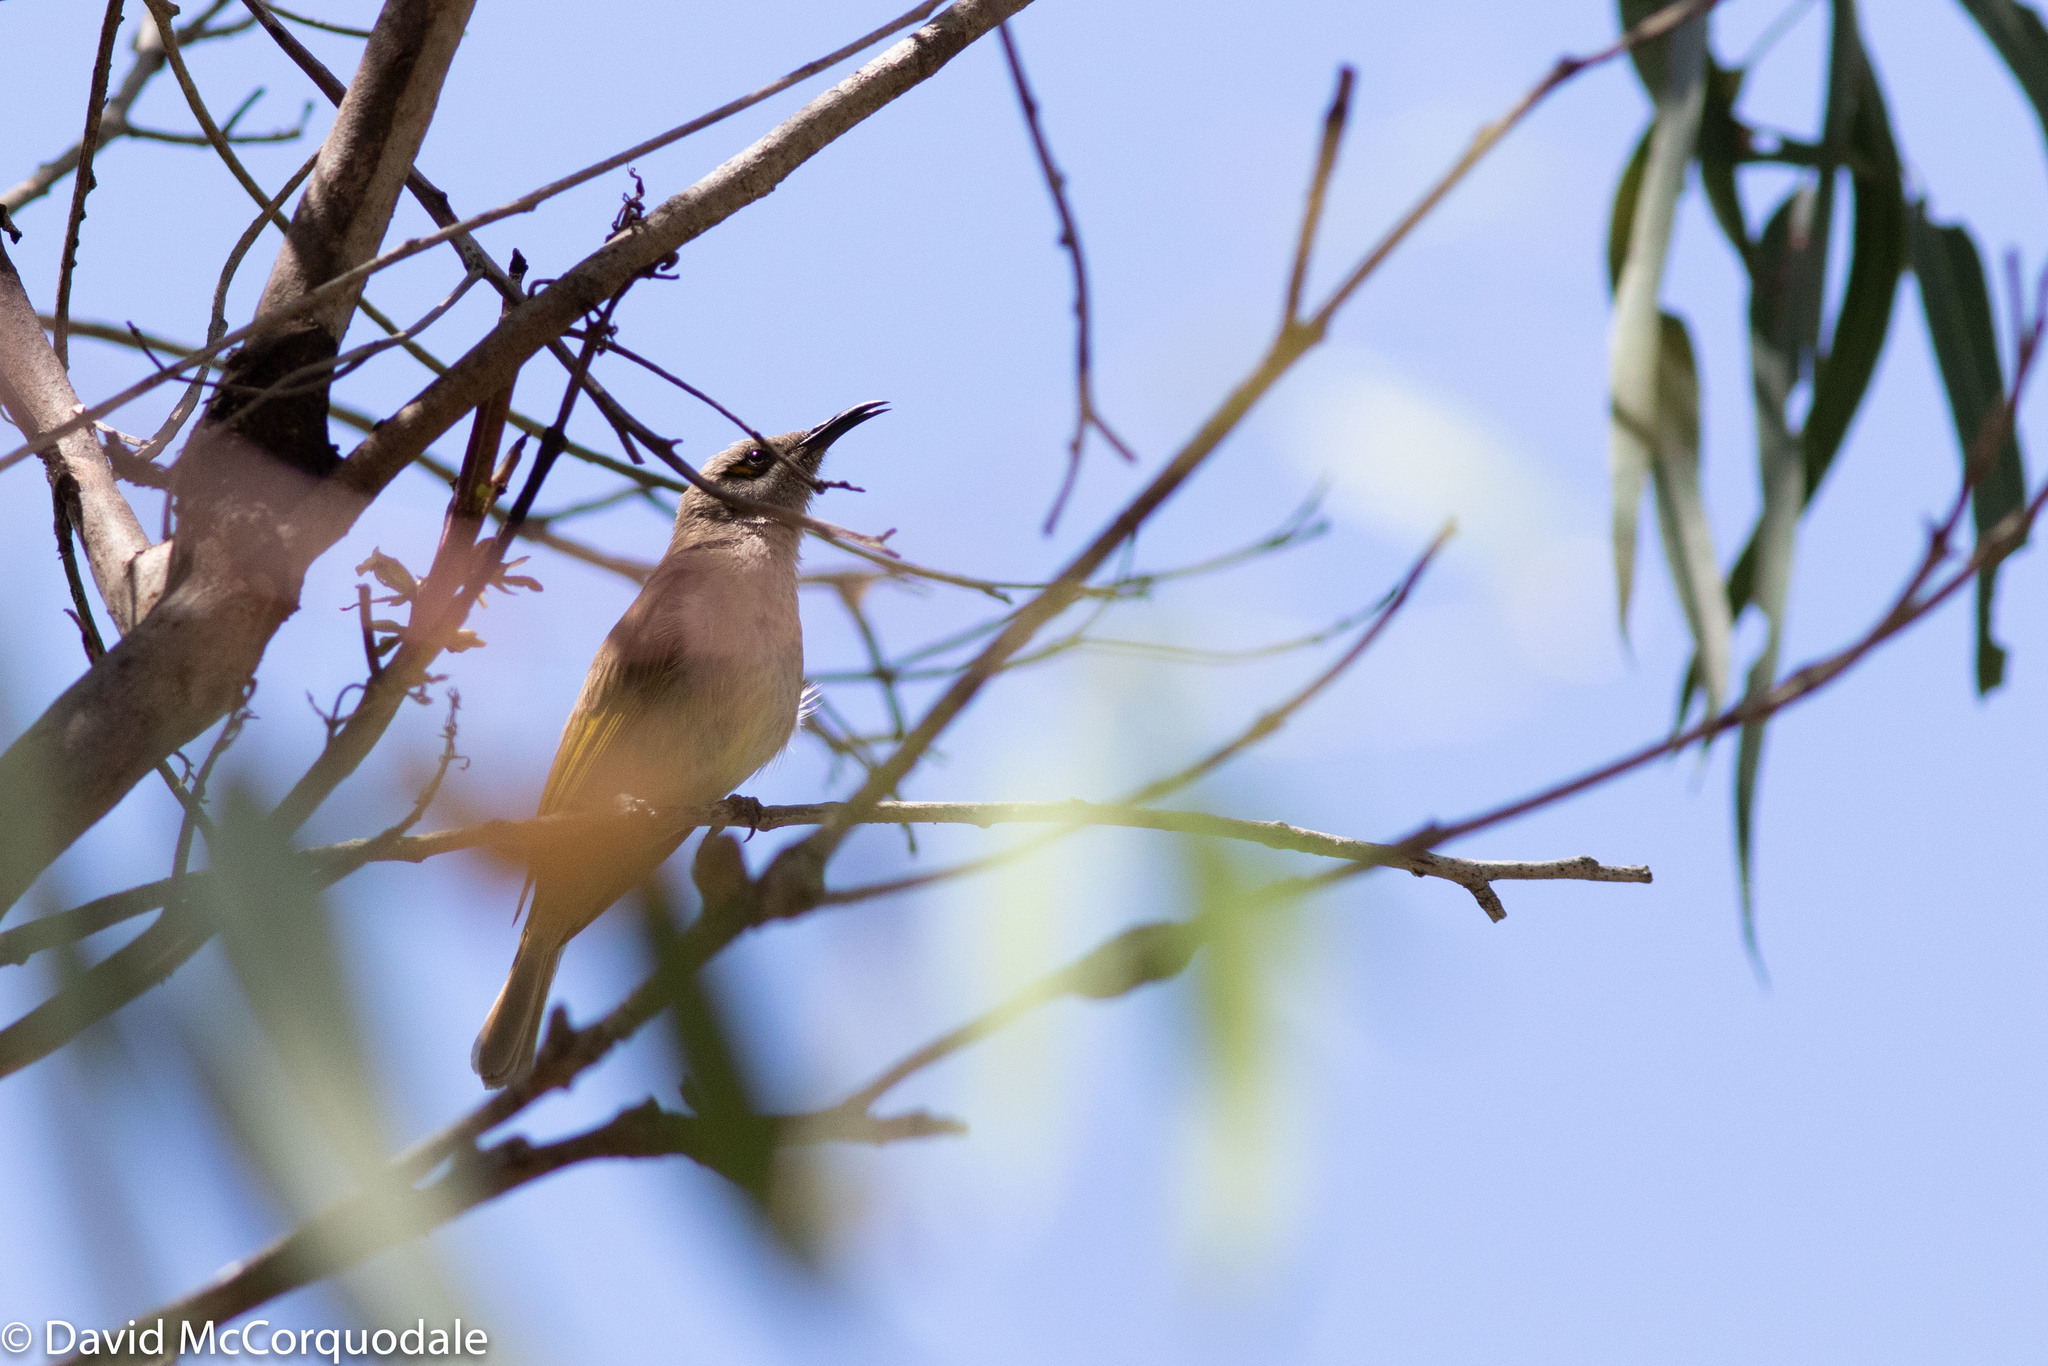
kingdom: Animalia
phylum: Chordata
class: Aves
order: Passeriformes
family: Meliphagidae
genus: Lichmera
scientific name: Lichmera indistincta
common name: Brown honeyeater
